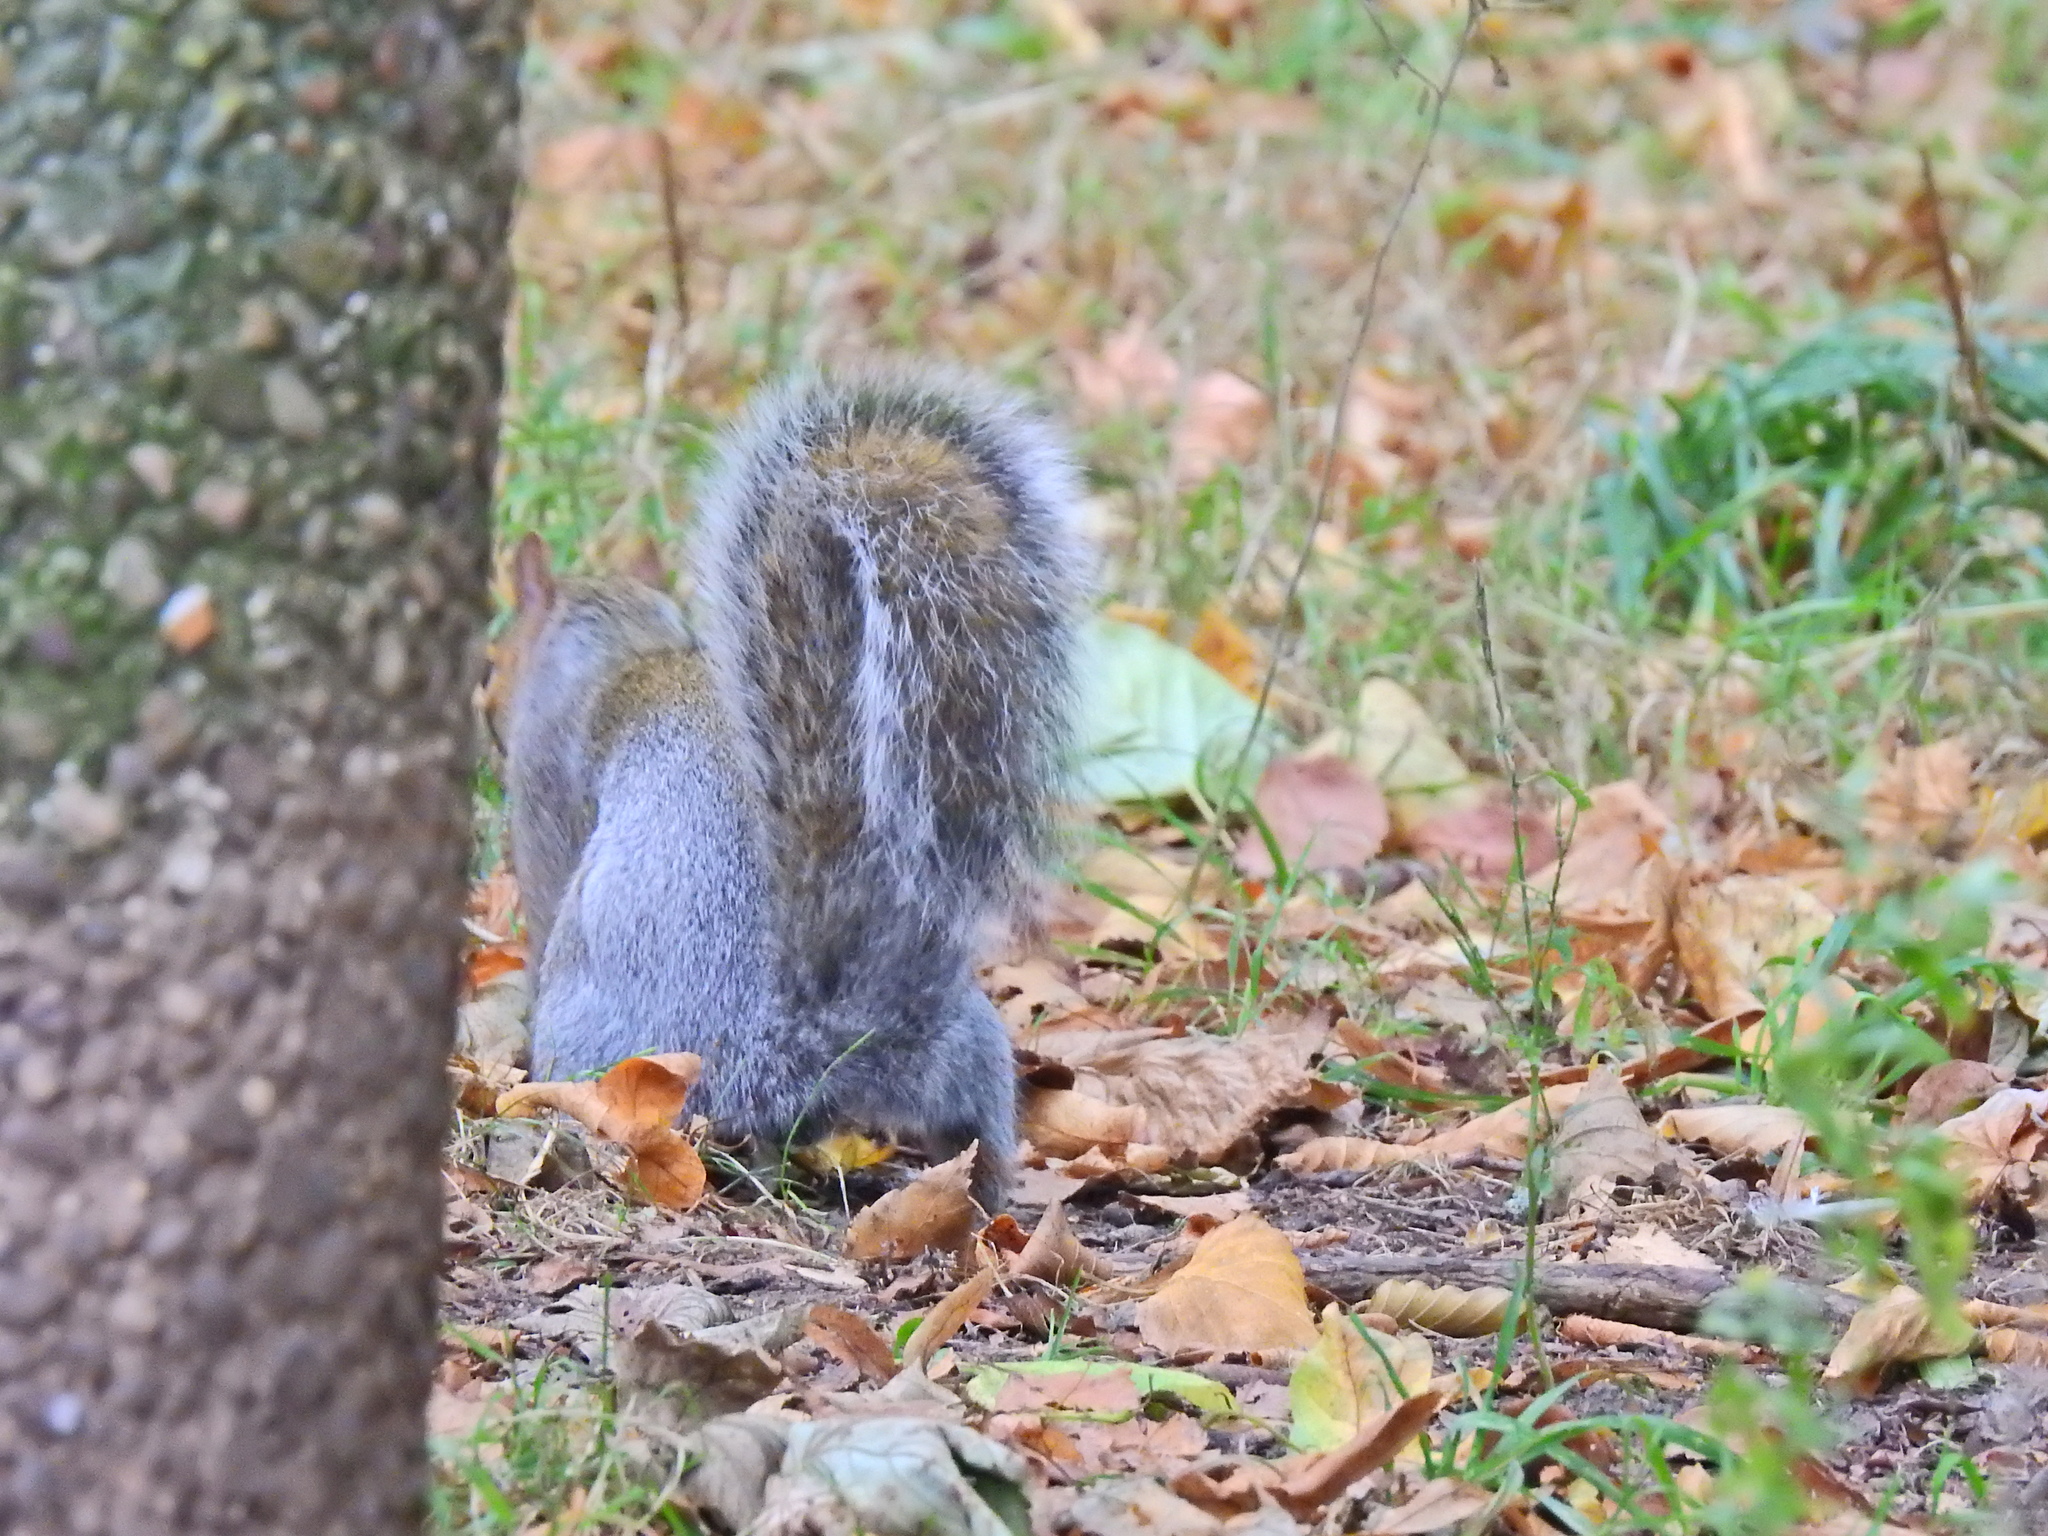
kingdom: Animalia
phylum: Chordata
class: Mammalia
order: Rodentia
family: Sciuridae
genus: Sciurus
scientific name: Sciurus carolinensis
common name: Eastern gray squirrel
